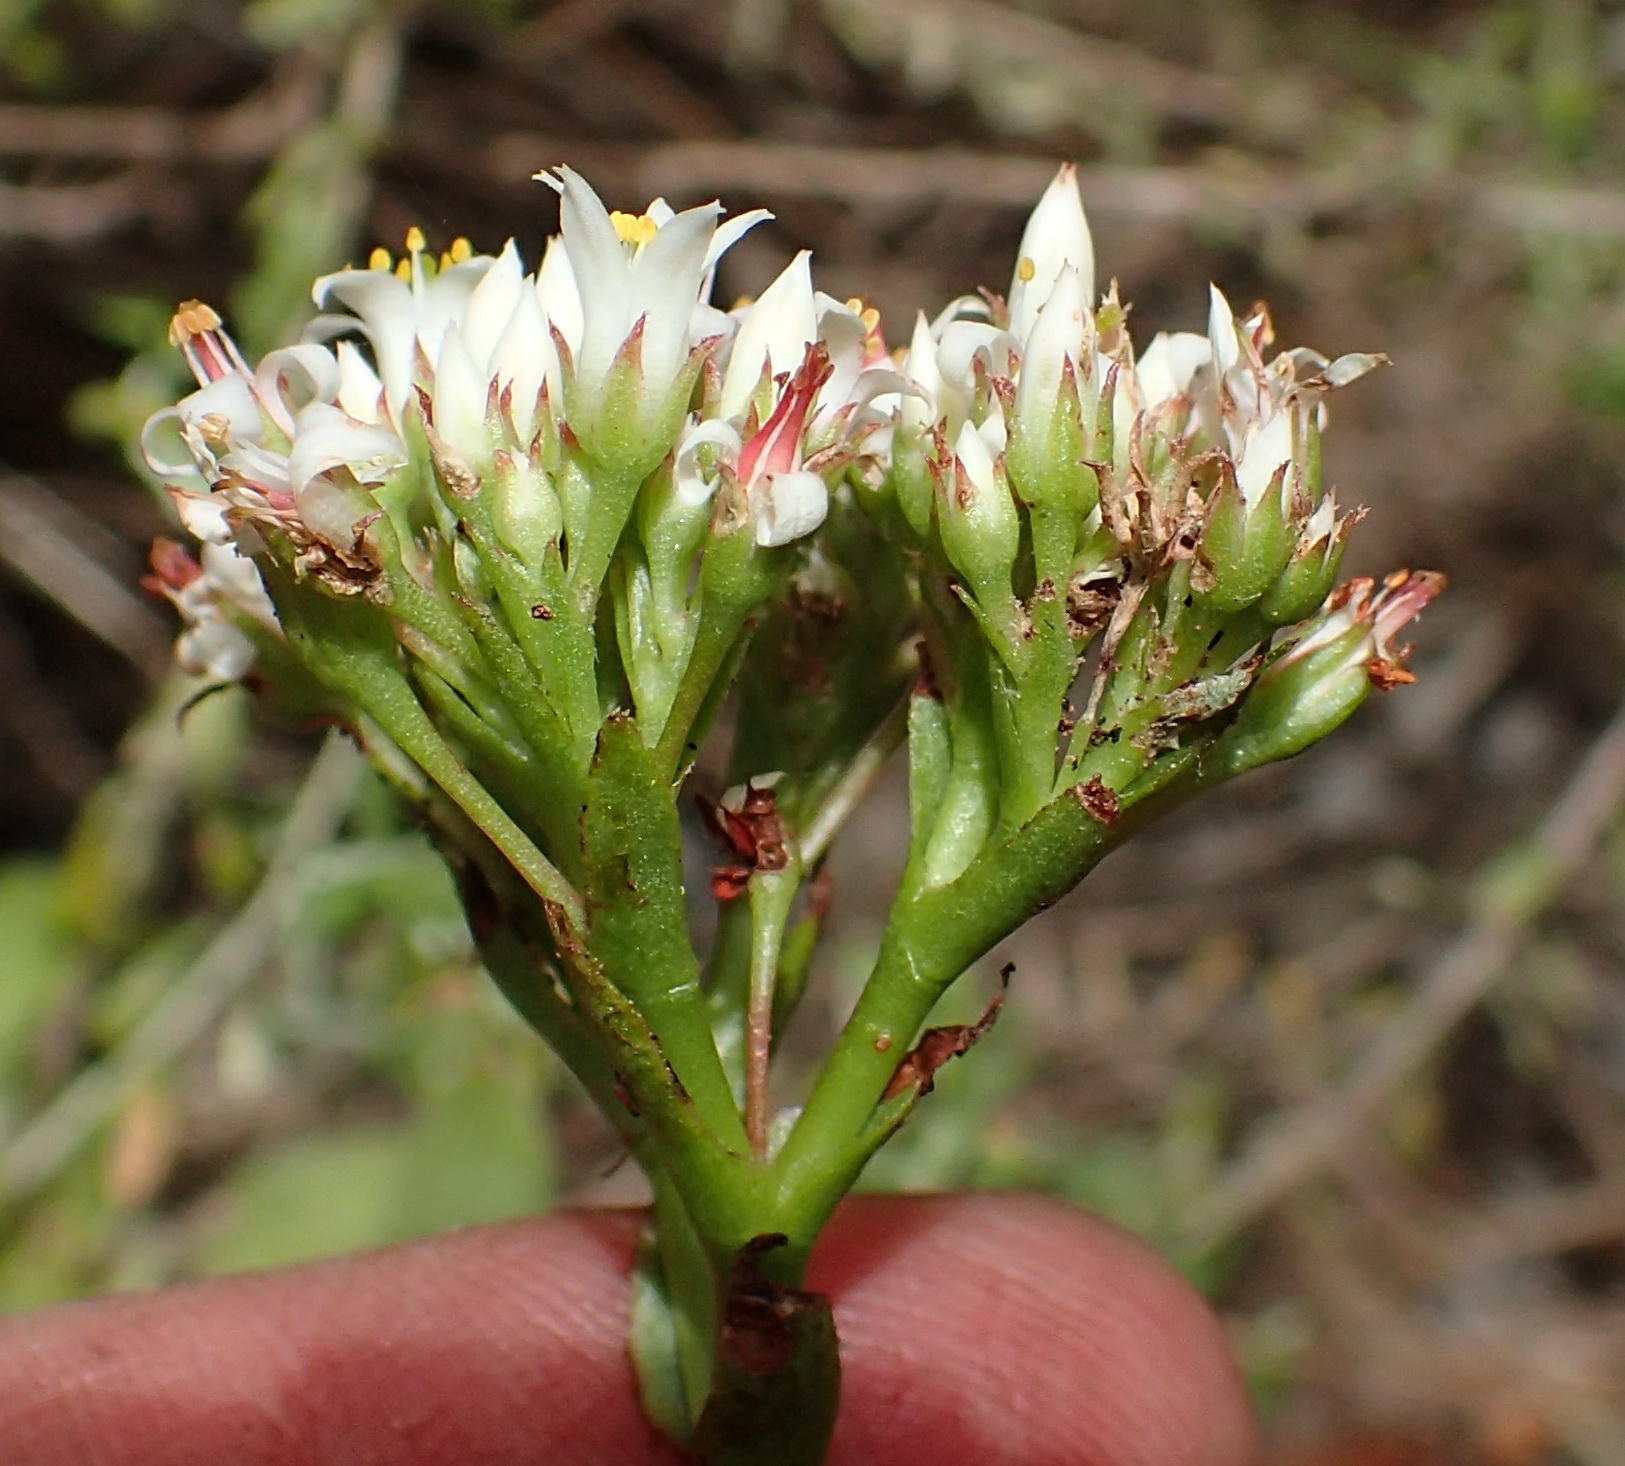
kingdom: Plantae
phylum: Tracheophyta
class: Magnoliopsida
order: Saxifragales
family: Crassulaceae
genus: Crassula
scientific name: Crassula rubricaulis
